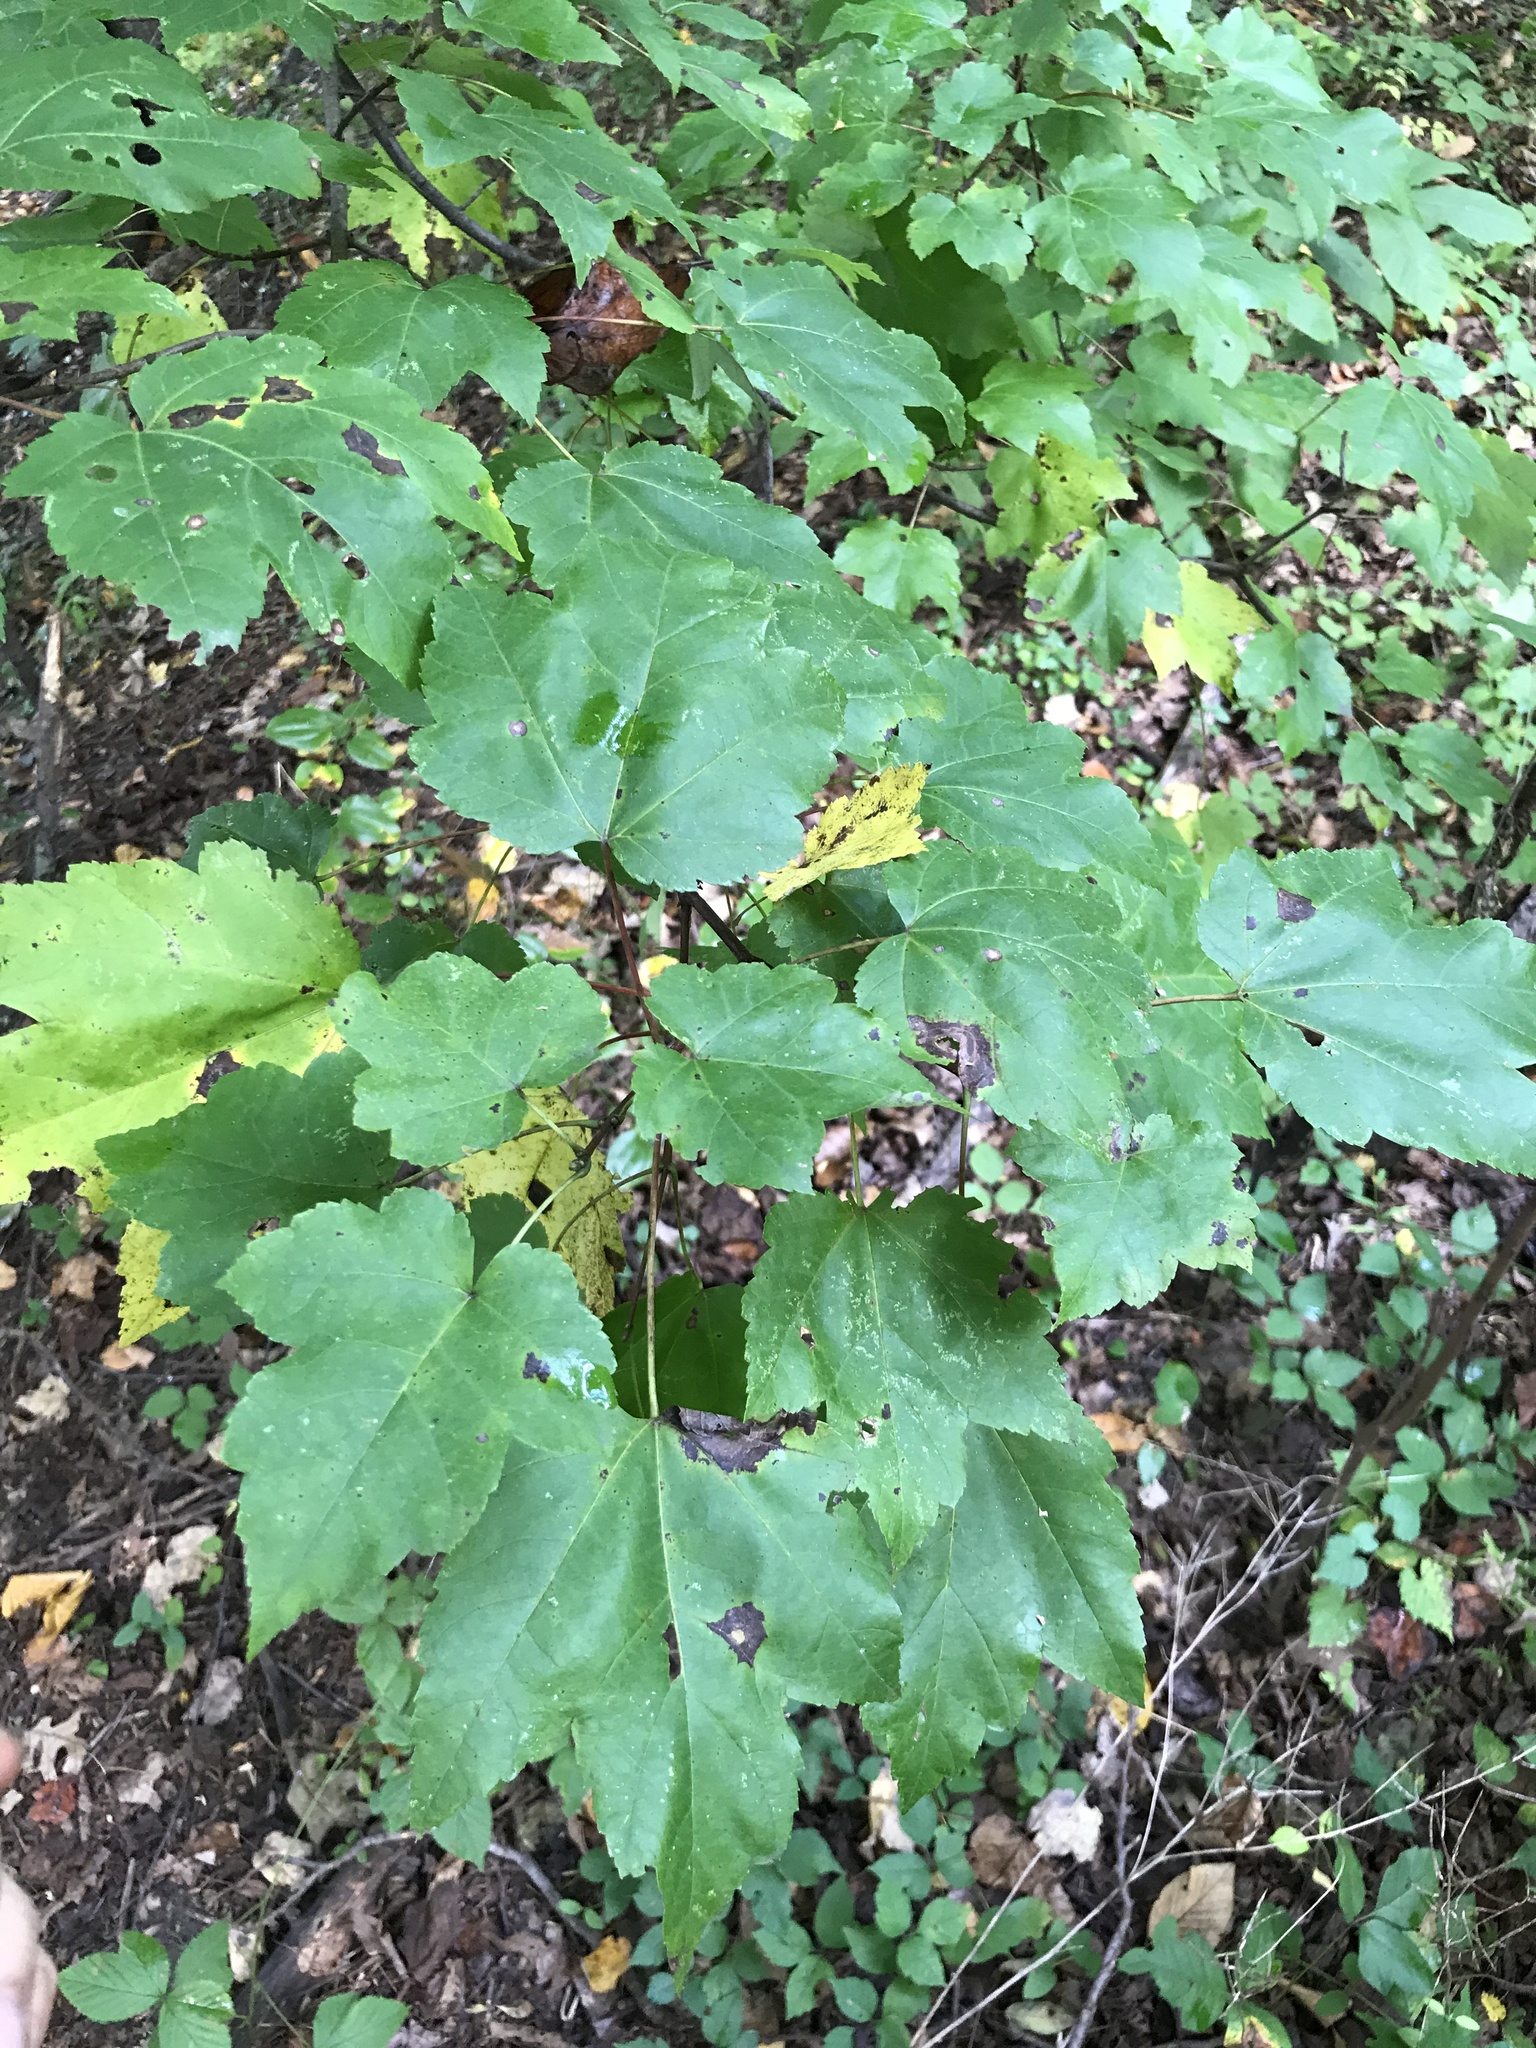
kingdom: Plantae
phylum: Tracheophyta
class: Magnoliopsida
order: Sapindales
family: Sapindaceae
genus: Acer
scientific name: Acer rubrum
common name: Red maple
